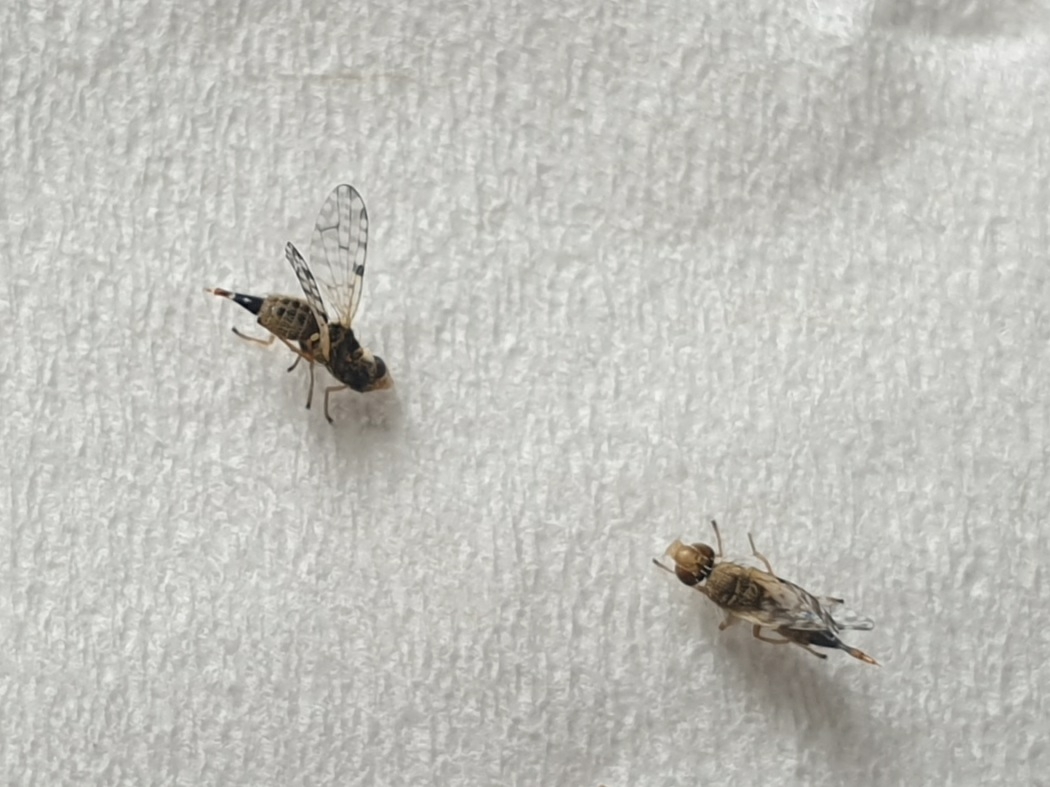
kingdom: Animalia
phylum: Arthropoda
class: Insecta
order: Diptera
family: Tephritidae
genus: Dioxyna
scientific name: Dioxyna sororcula
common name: Fruit fly
